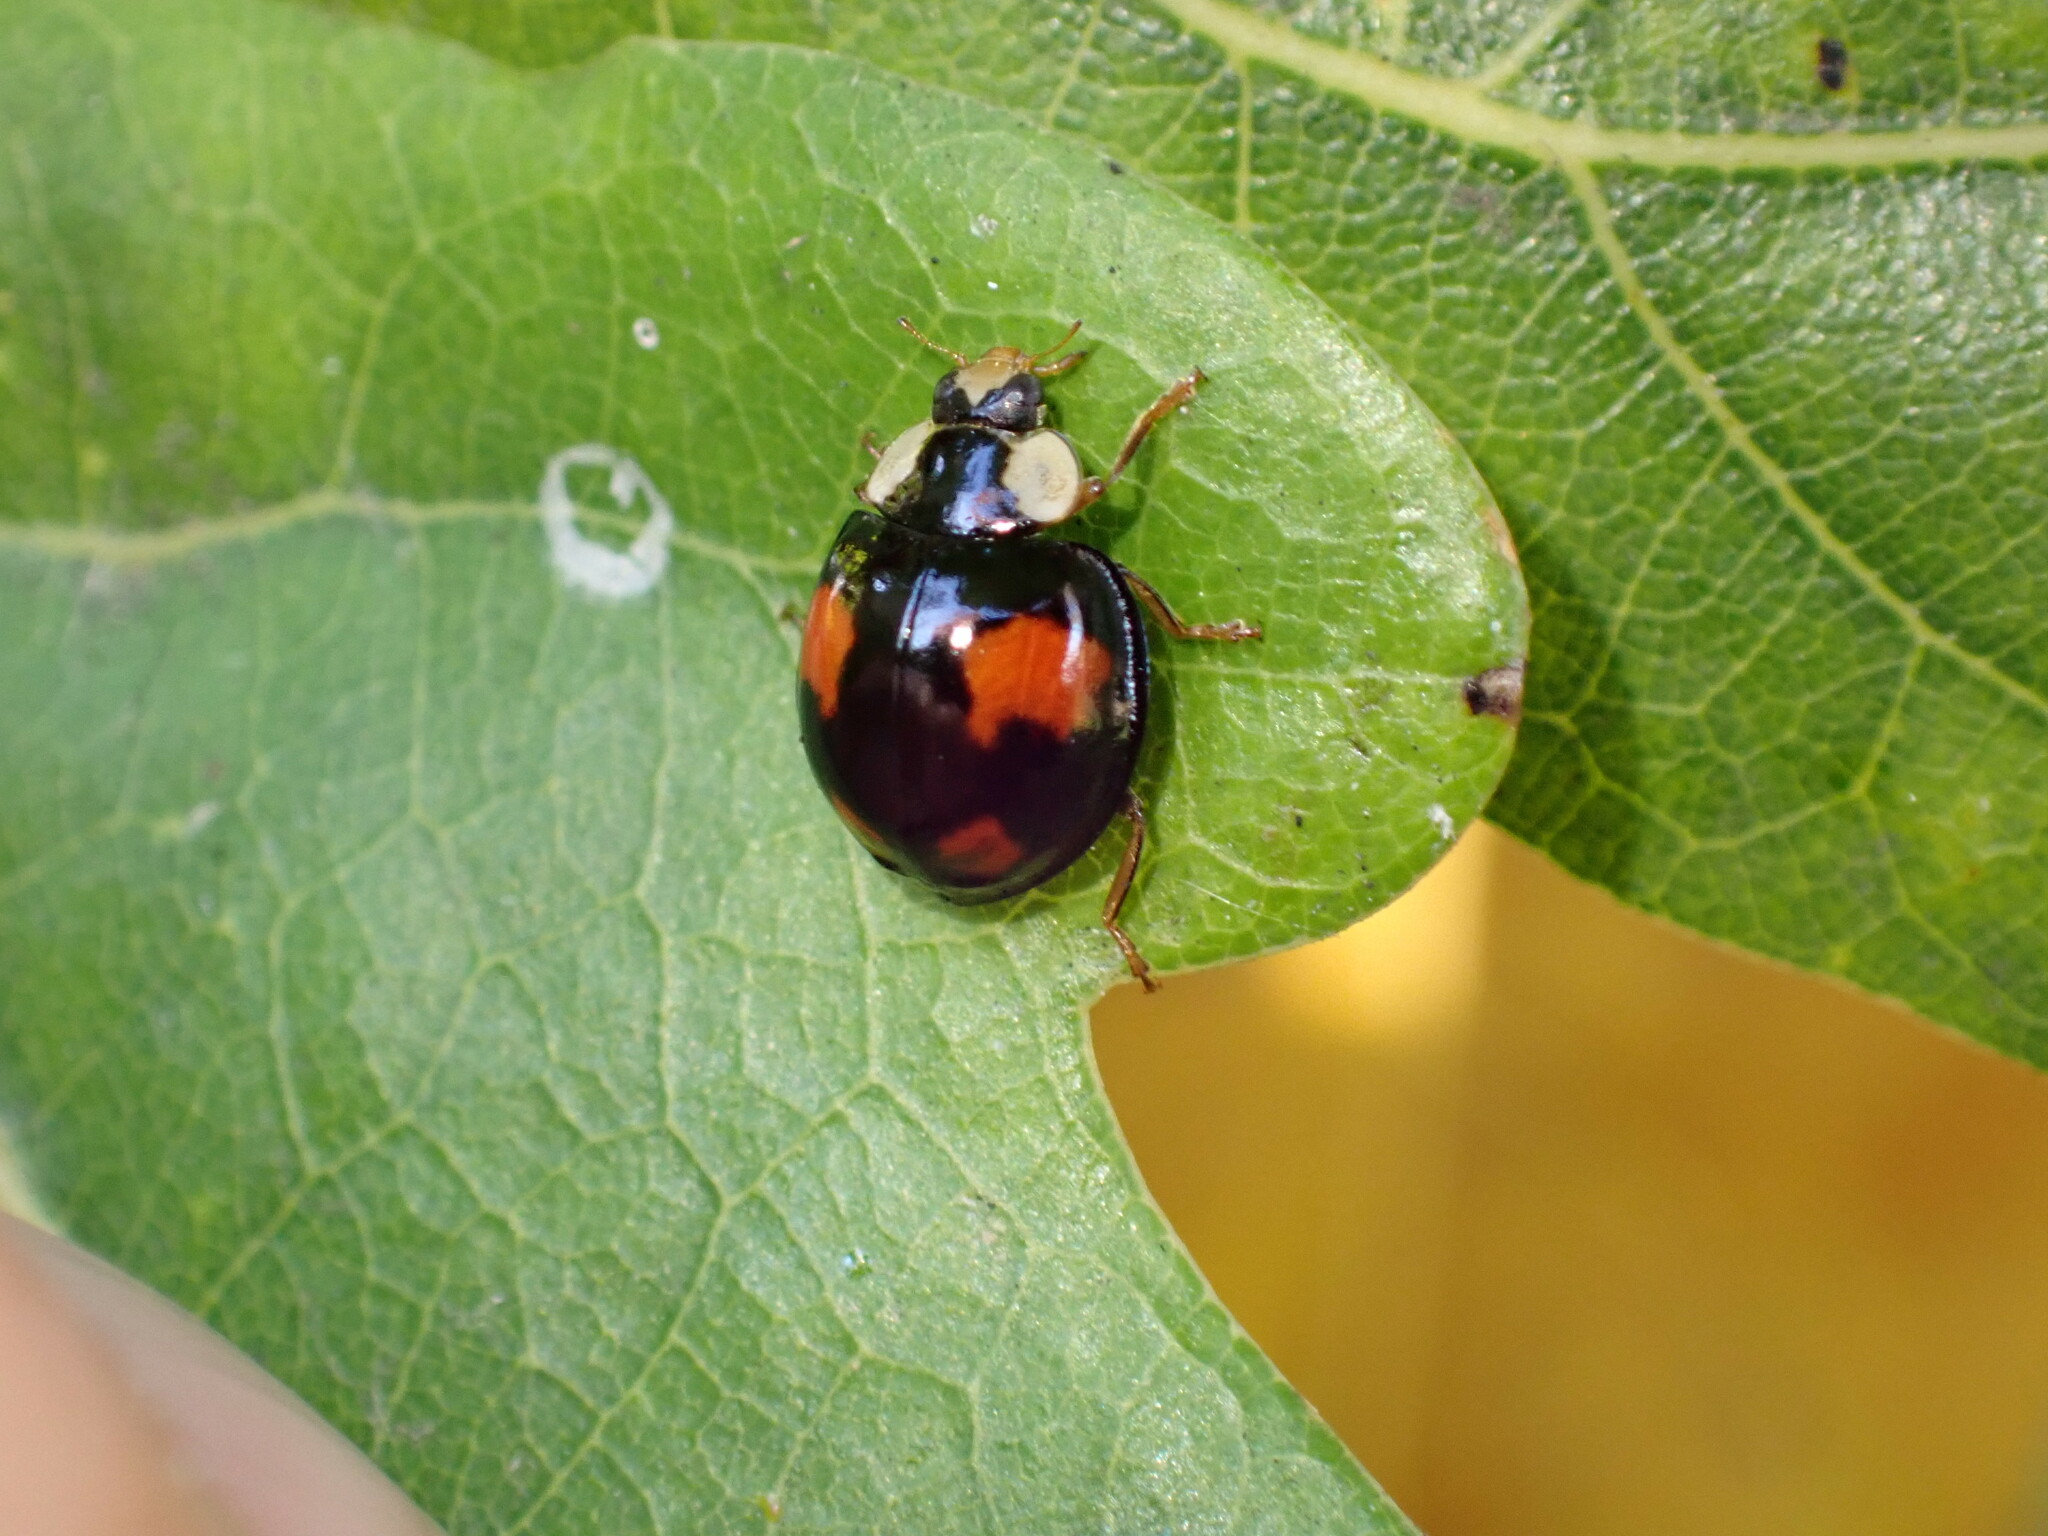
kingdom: Animalia
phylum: Arthropoda
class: Insecta
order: Coleoptera
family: Coccinellidae
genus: Harmonia
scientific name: Harmonia axyridis
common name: Harlequin ladybird
